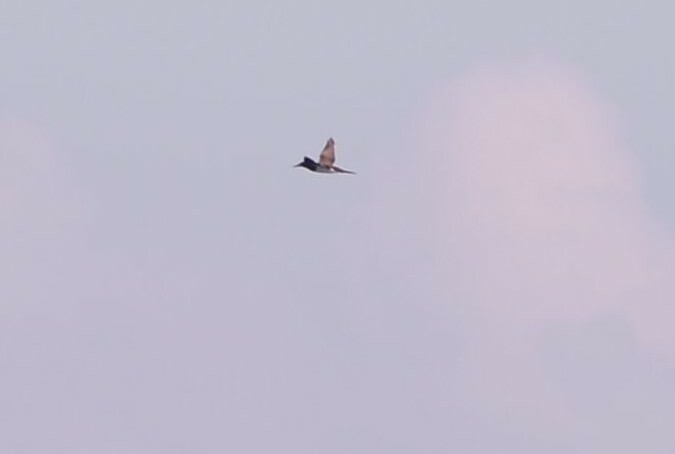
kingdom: Animalia
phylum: Chordata
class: Aves
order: Suliformes
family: Sulidae
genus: Sula
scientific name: Sula leucogaster
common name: Brown booby
